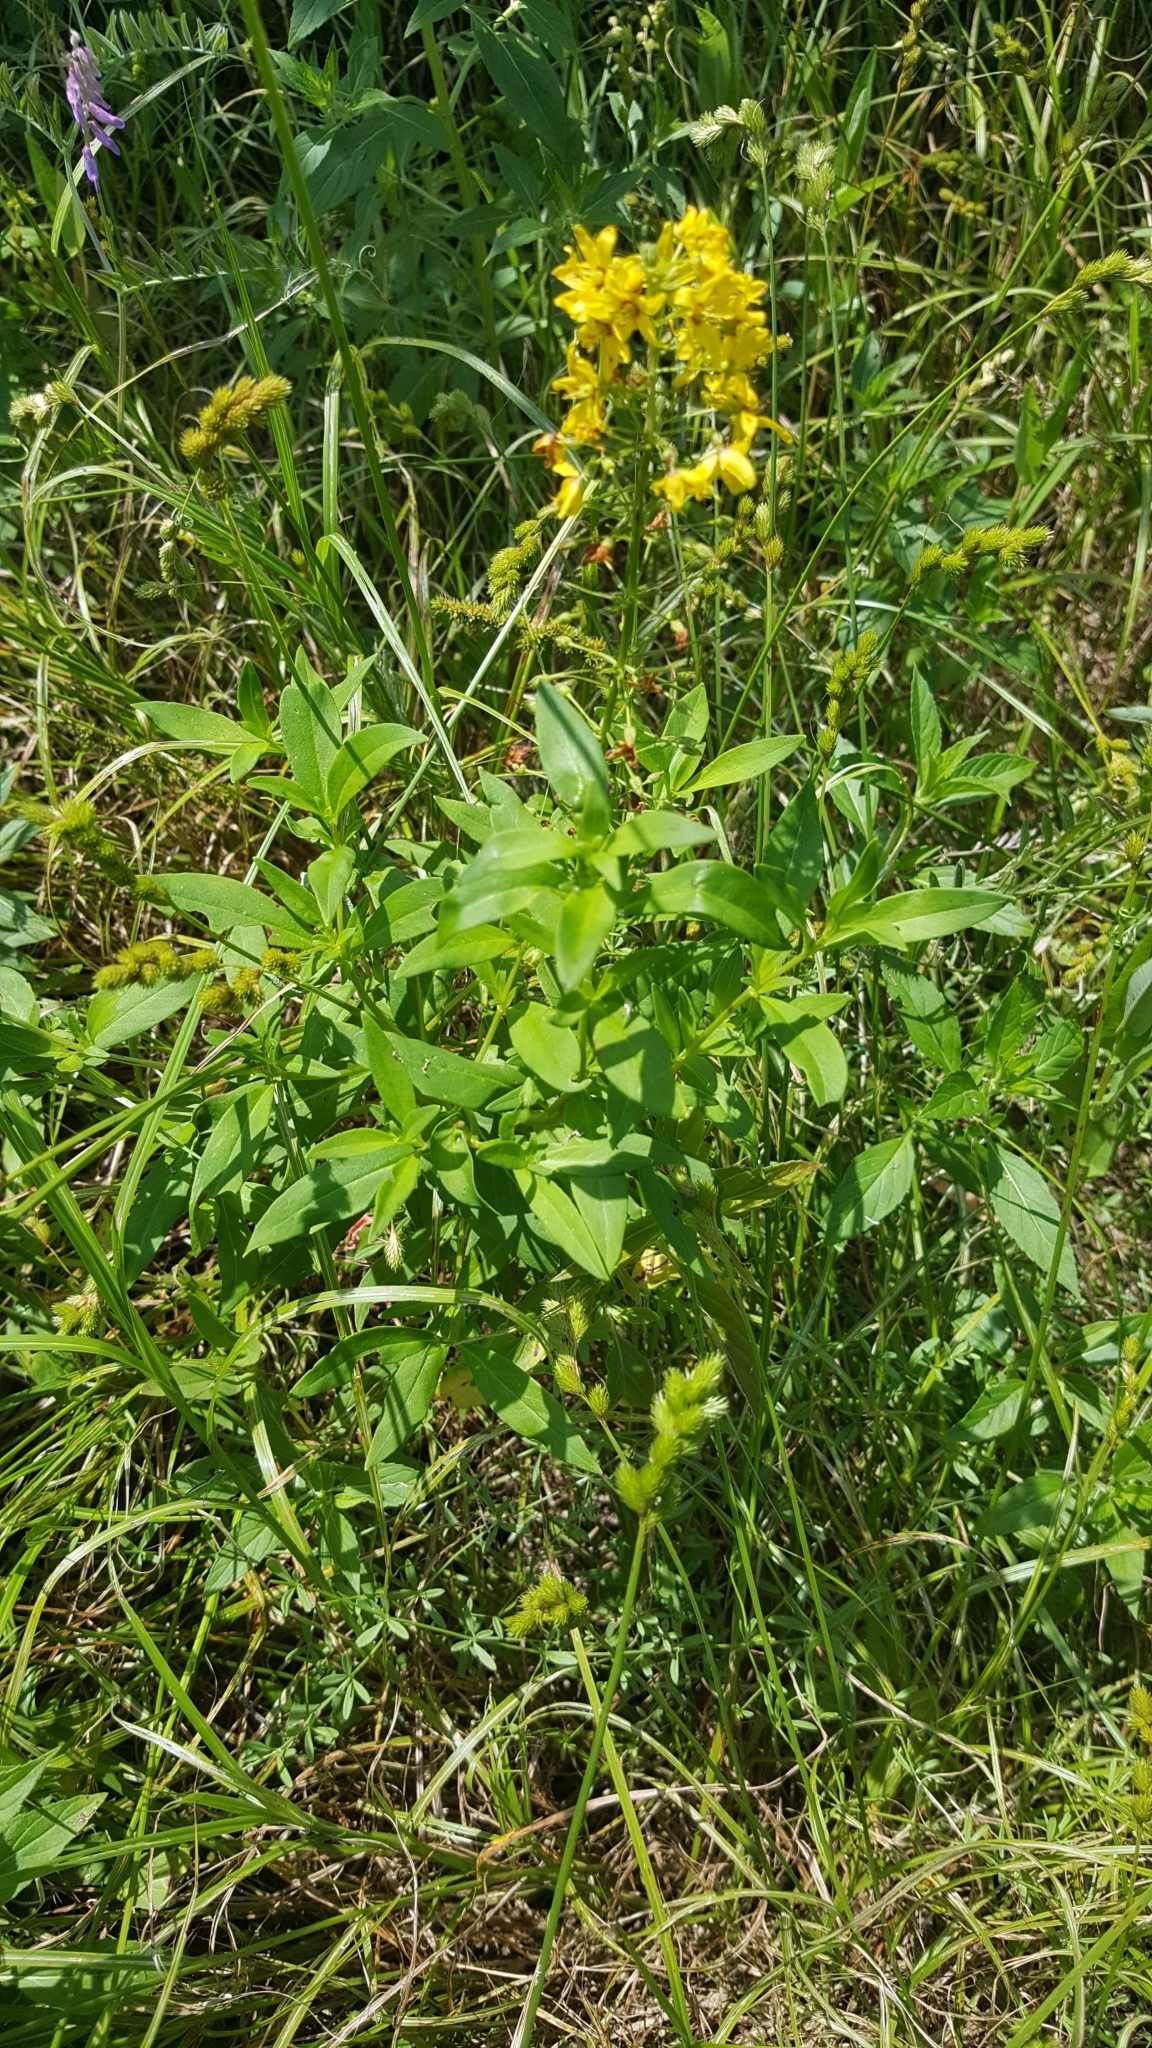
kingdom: Plantae
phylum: Tracheophyta
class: Magnoliopsida
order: Ericales
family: Primulaceae
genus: Lysimachia
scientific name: Lysimachia terrestris
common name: Lake loosestrife
